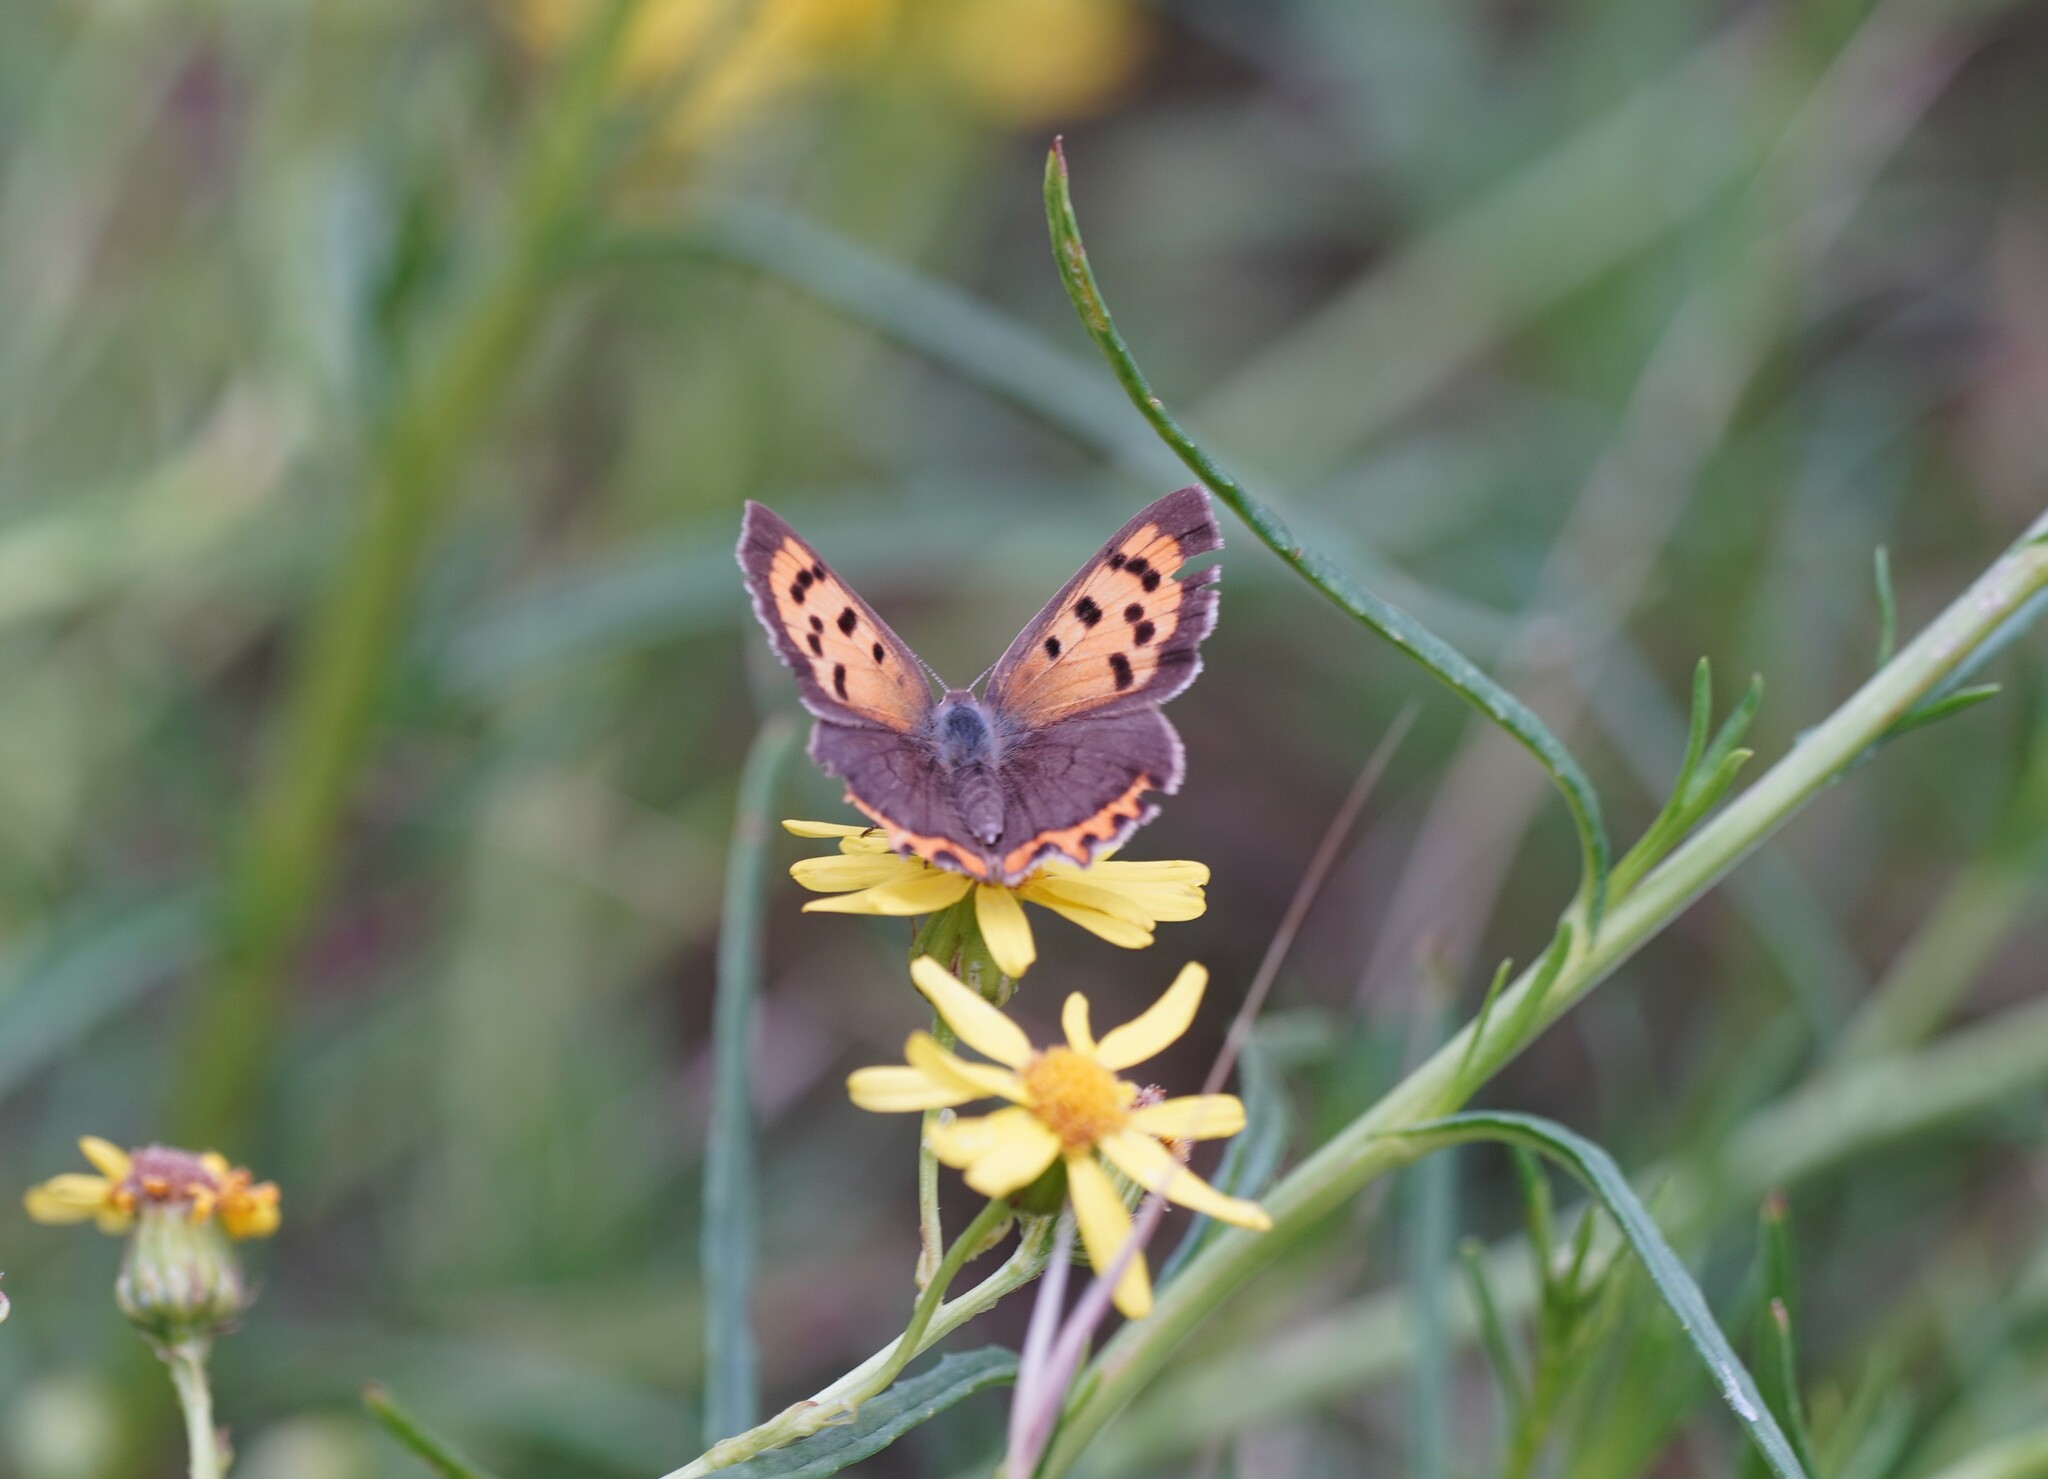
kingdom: Animalia
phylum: Arthropoda
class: Insecta
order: Lepidoptera
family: Lycaenidae
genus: Lycaena
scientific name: Lycaena phlaeas
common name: Small copper
